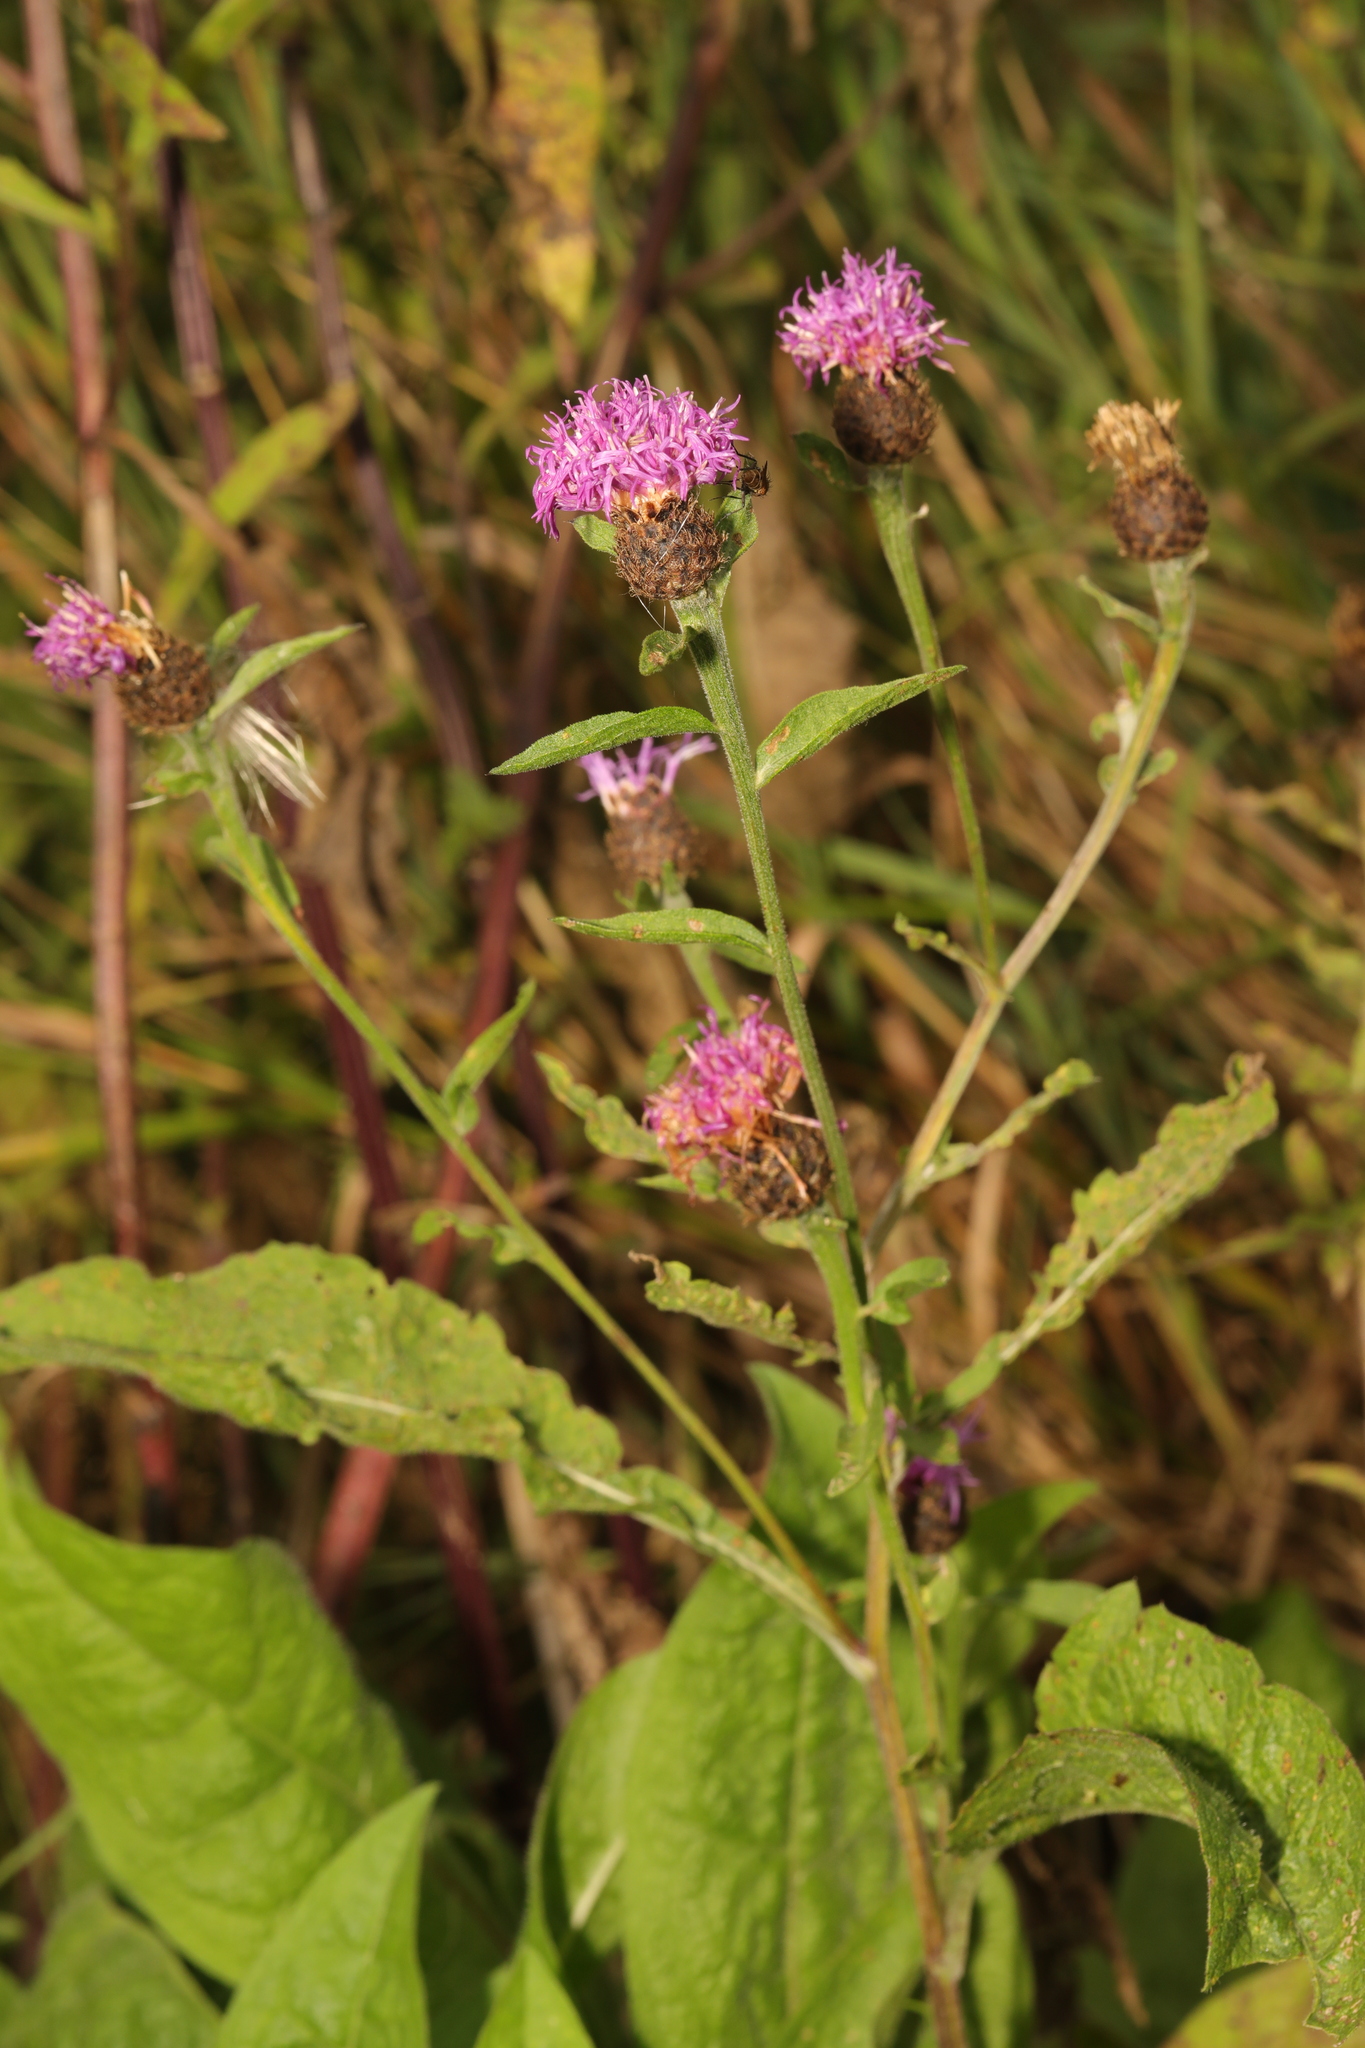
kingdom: Plantae
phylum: Tracheophyta
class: Magnoliopsida
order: Asterales
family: Asteraceae
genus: Centaurea
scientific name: Centaurea nigra
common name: Lesser knapweed
